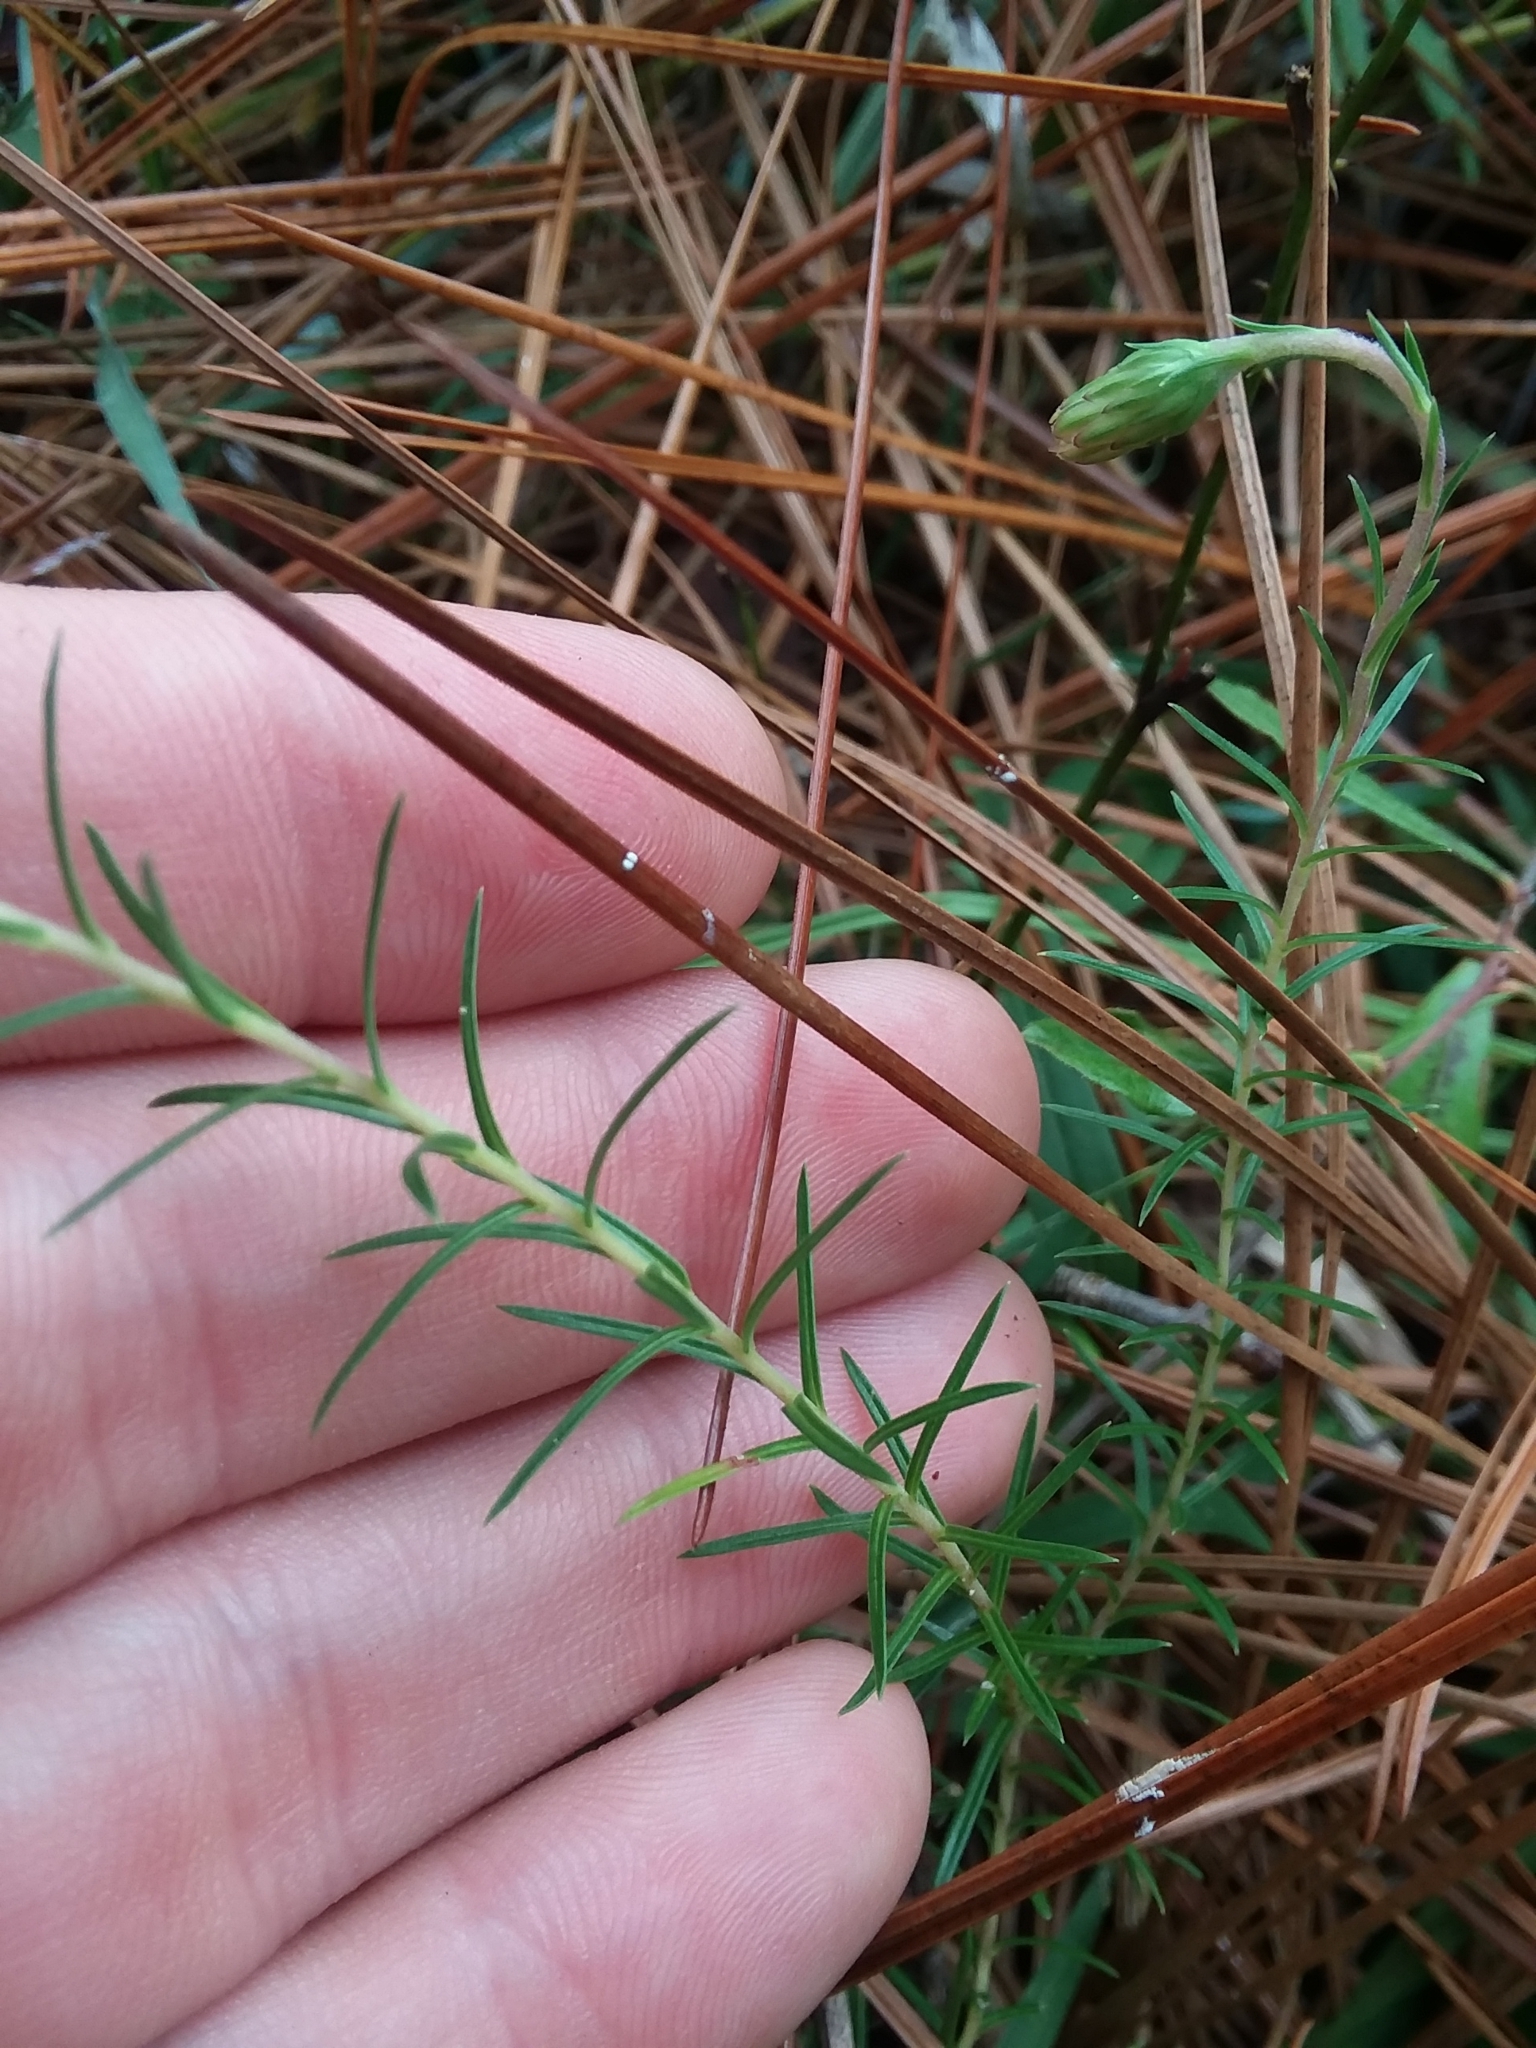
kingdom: Plantae
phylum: Tracheophyta
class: Magnoliopsida
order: Asterales
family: Asteraceae
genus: Ionactis
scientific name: Ionactis repens
